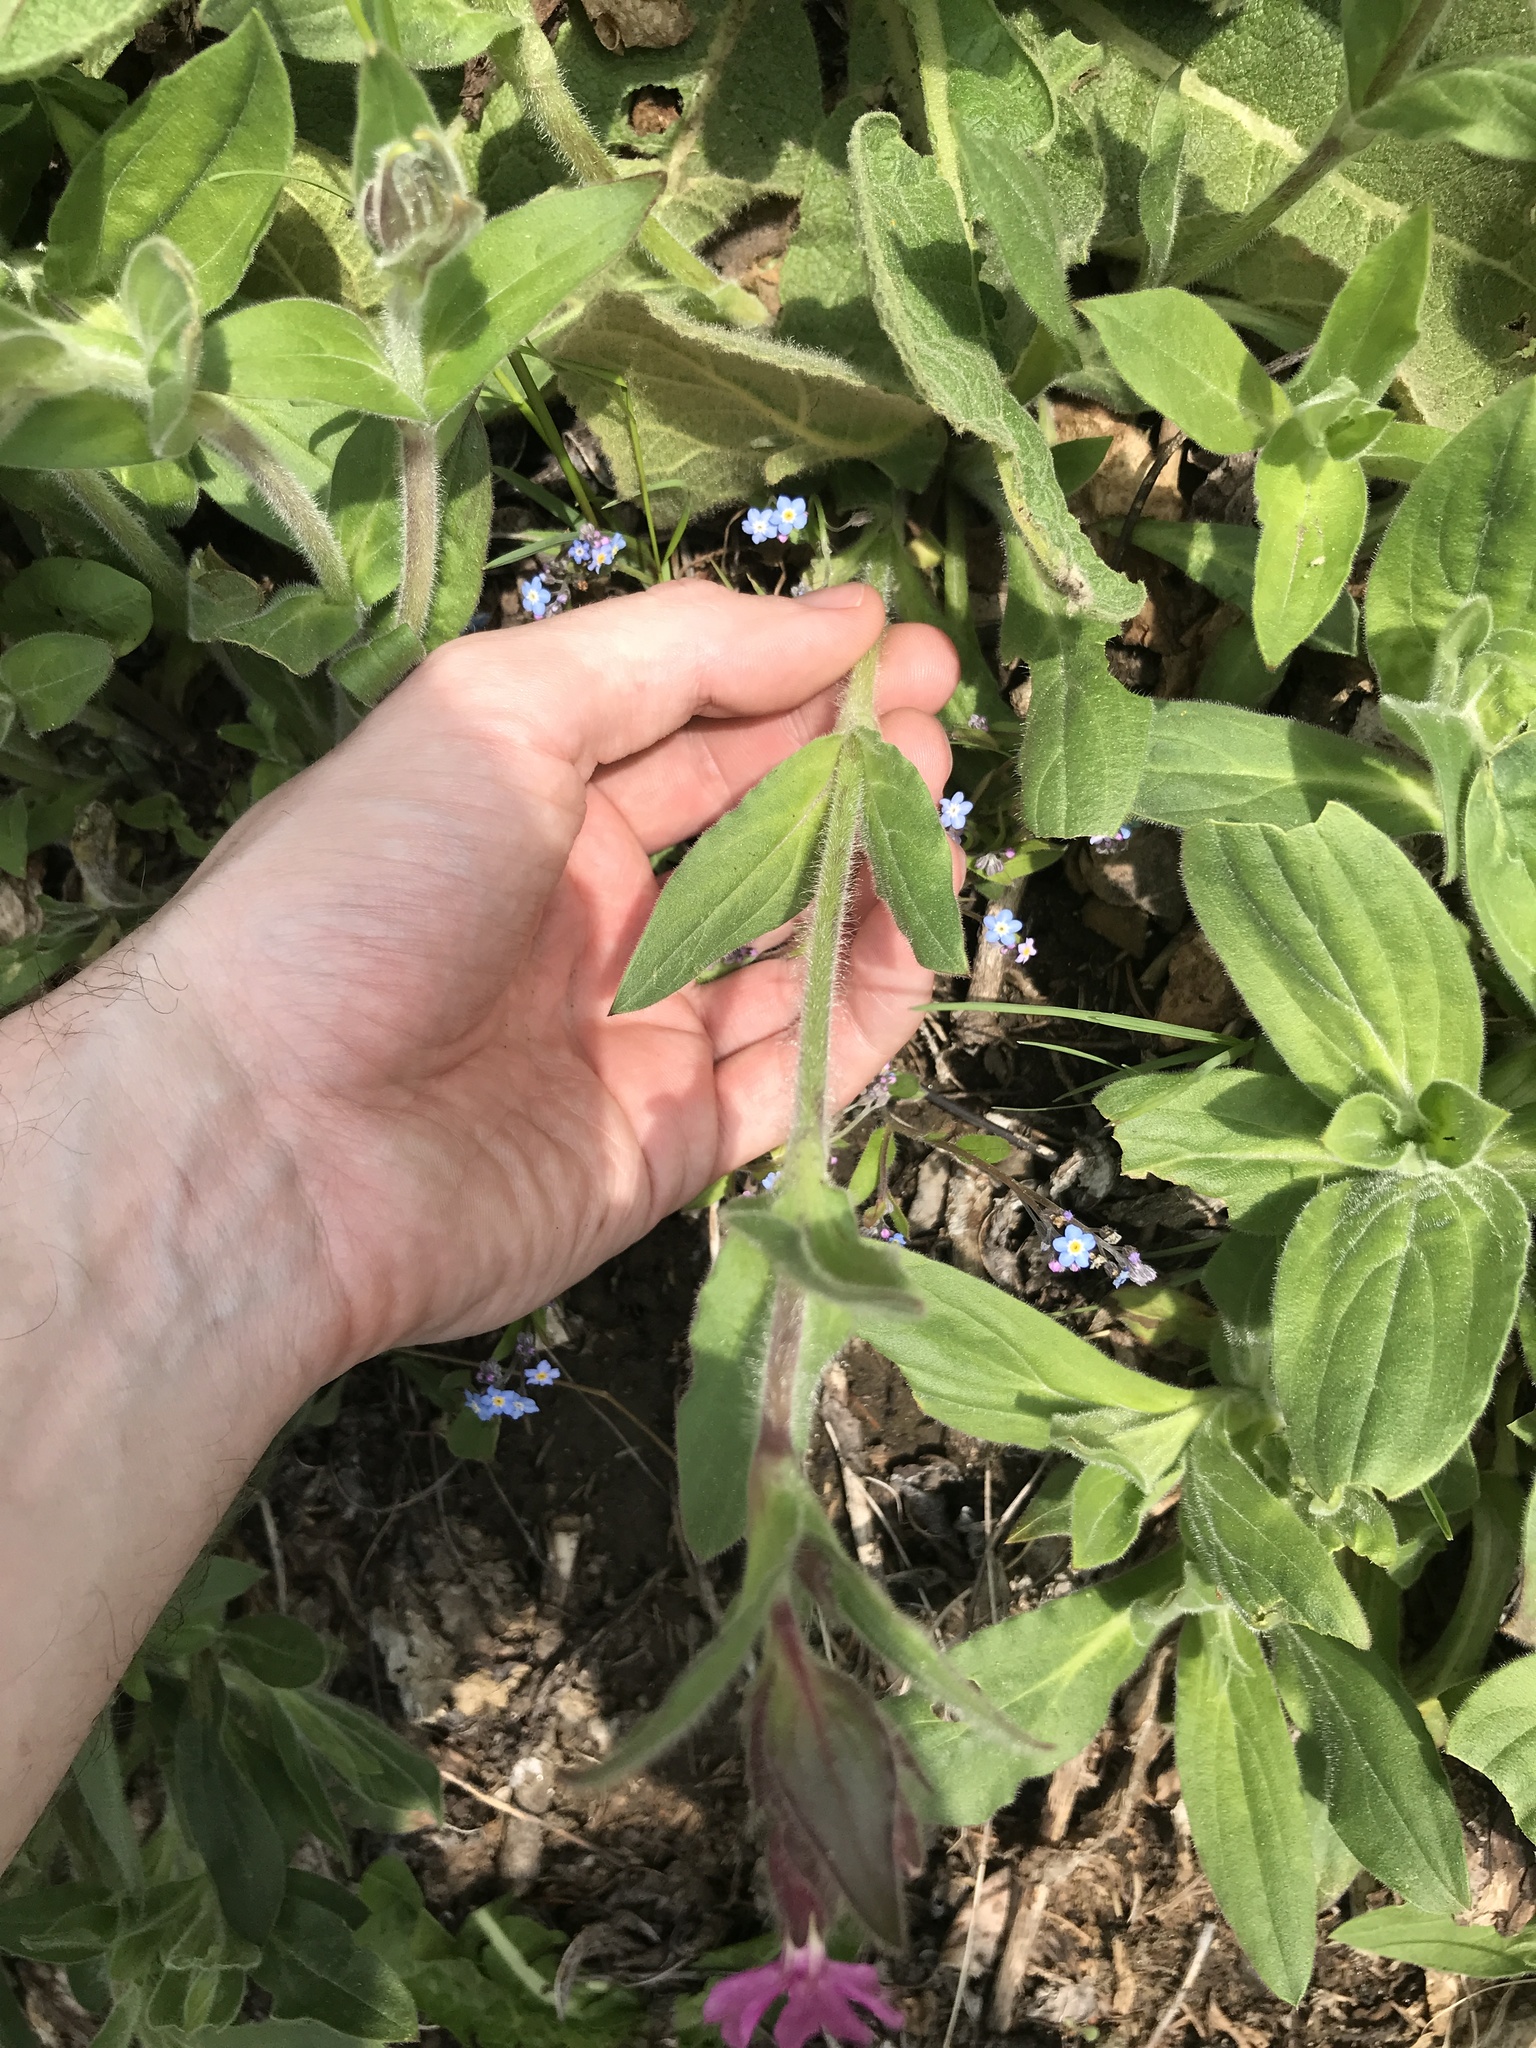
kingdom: Plantae
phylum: Tracheophyta
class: Magnoliopsida
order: Caryophyllales
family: Caryophyllaceae
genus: Silene
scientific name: Silene dioica
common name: Red campion
